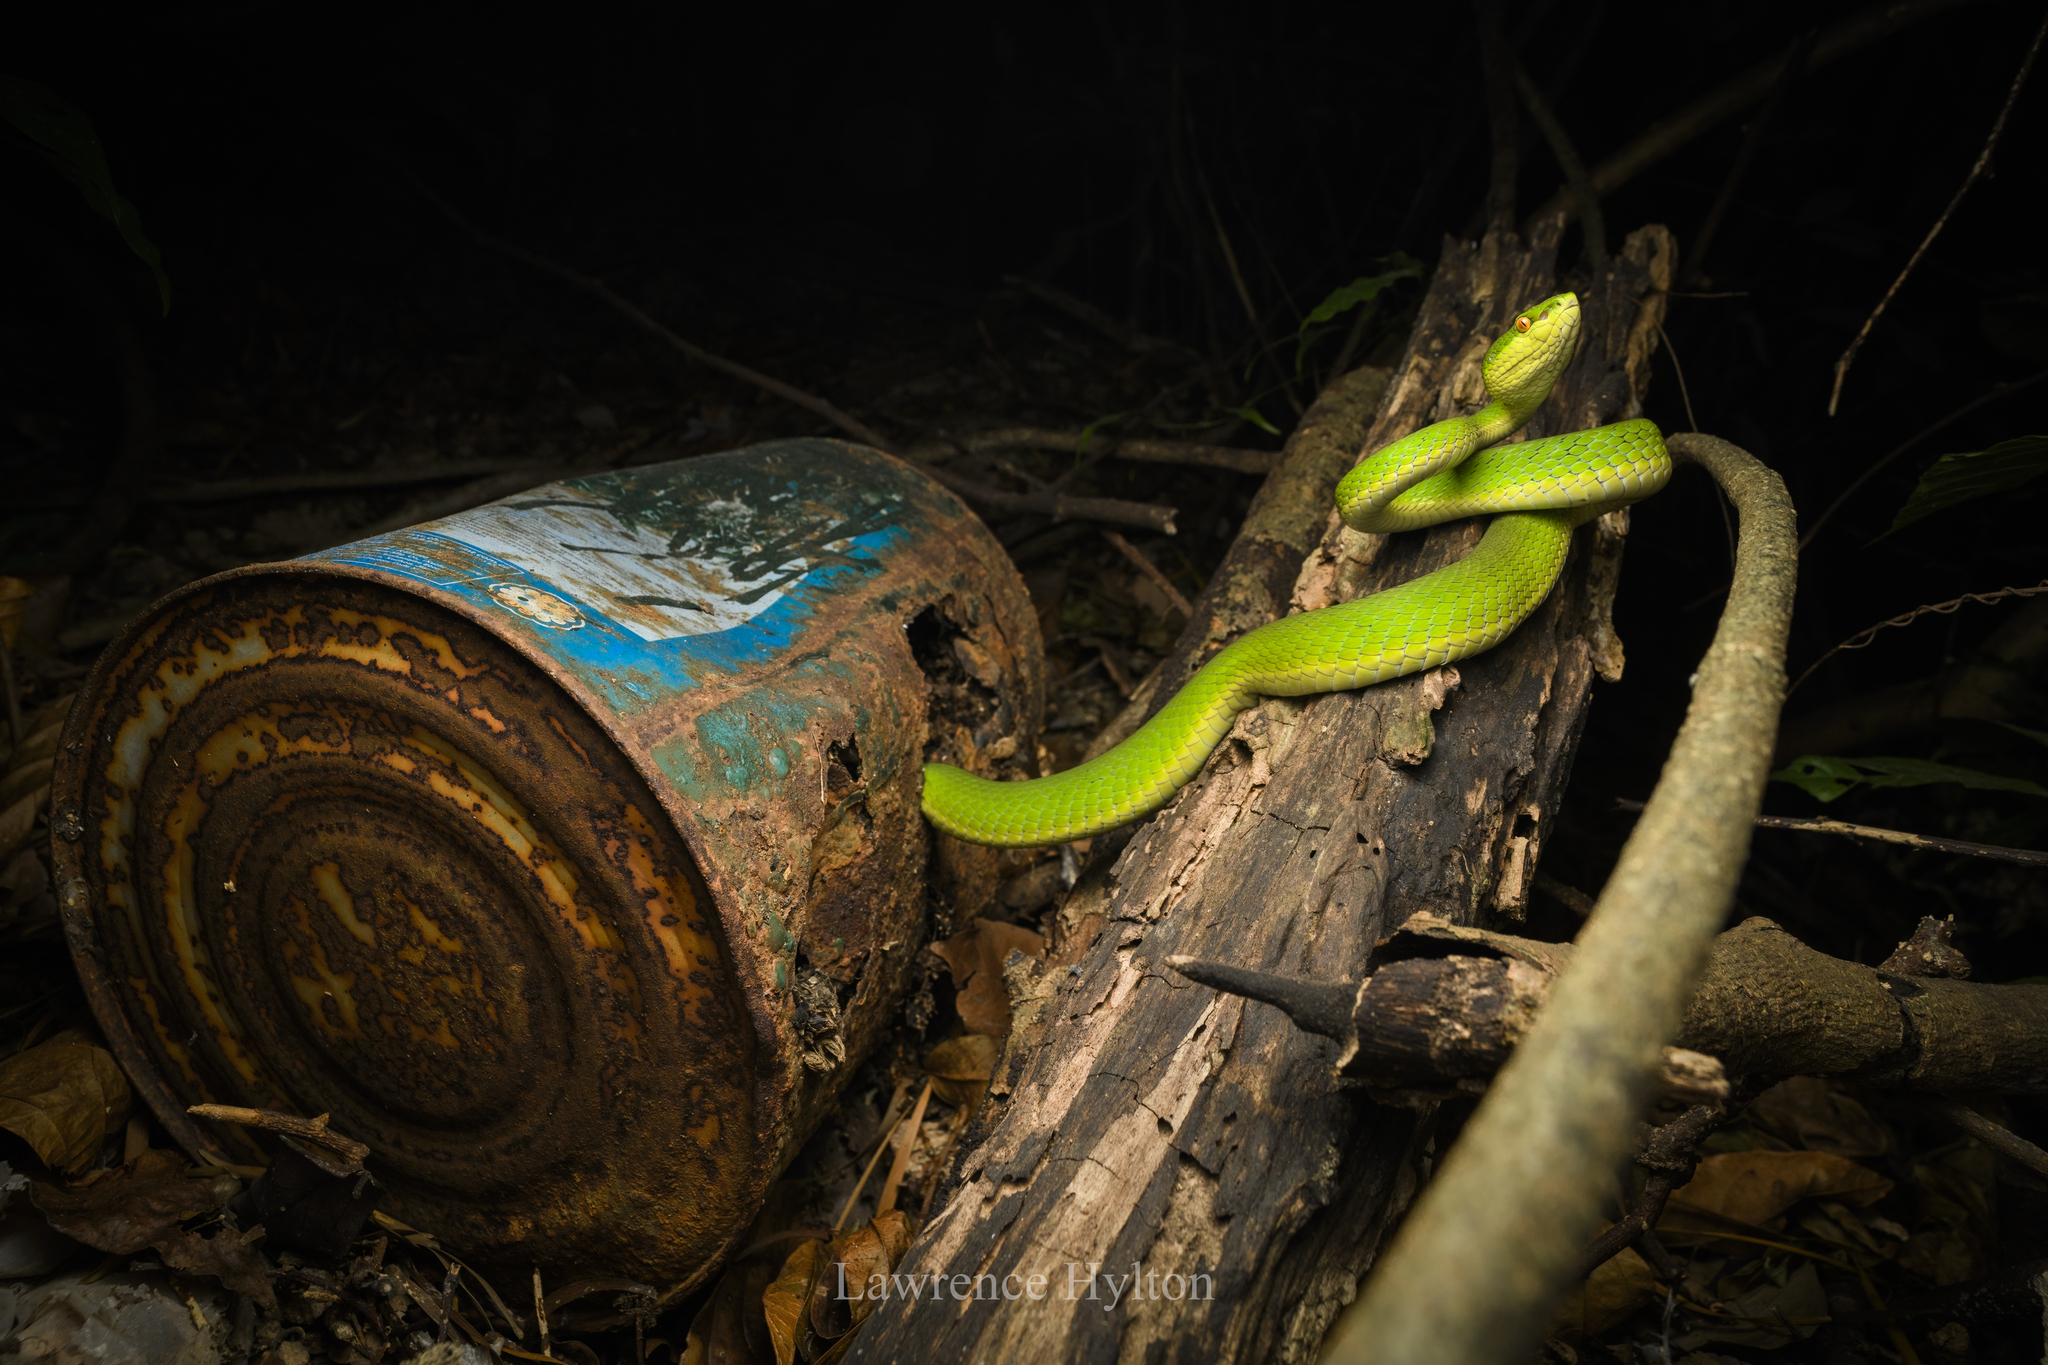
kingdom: Animalia
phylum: Chordata
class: Squamata
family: Viperidae
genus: Trimeresurus
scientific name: Trimeresurus albolabris
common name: White-lipped pitviper
